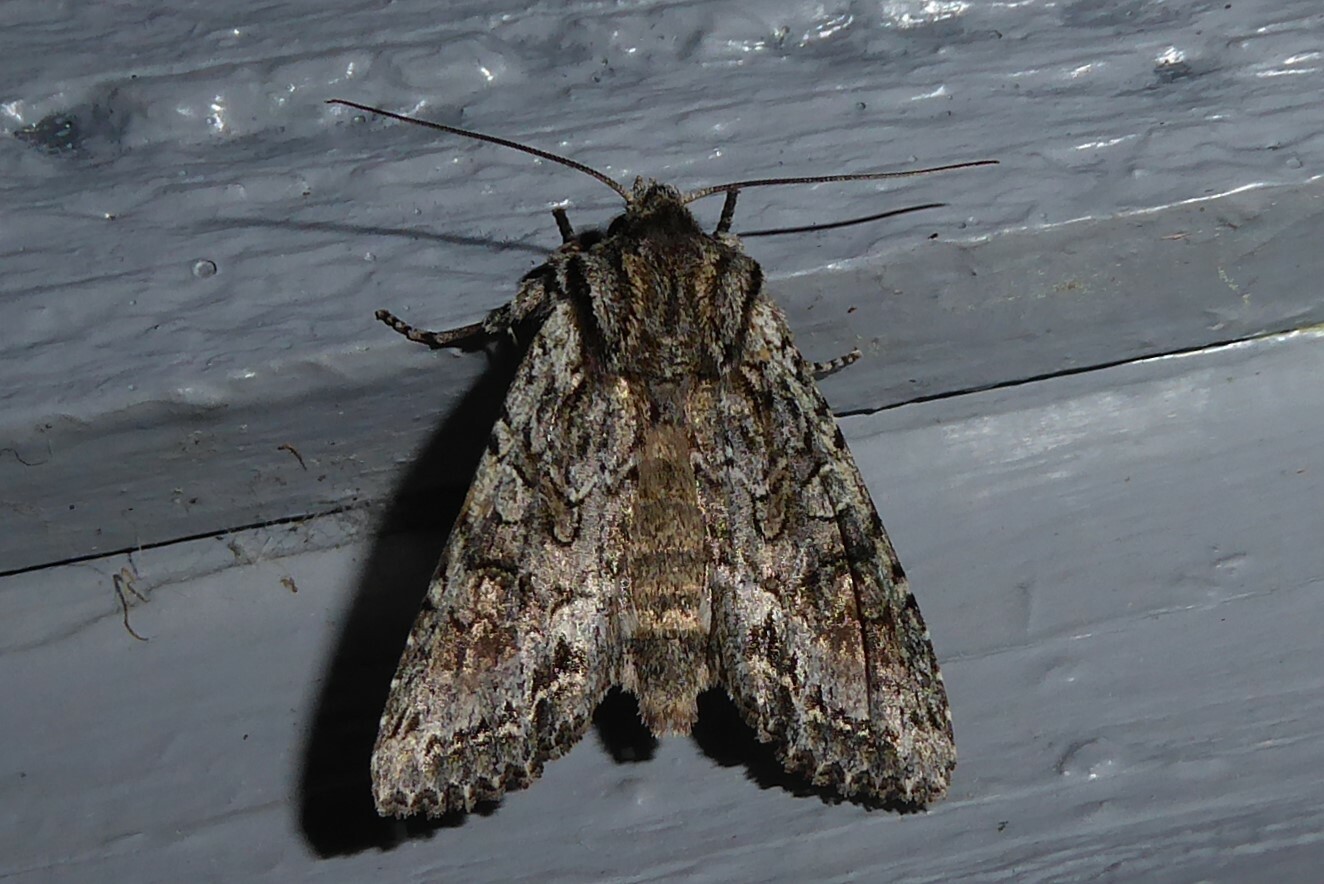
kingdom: Animalia
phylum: Arthropoda
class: Insecta
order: Lepidoptera
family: Noctuidae
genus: Ichneutica
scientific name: Ichneutica mutans
